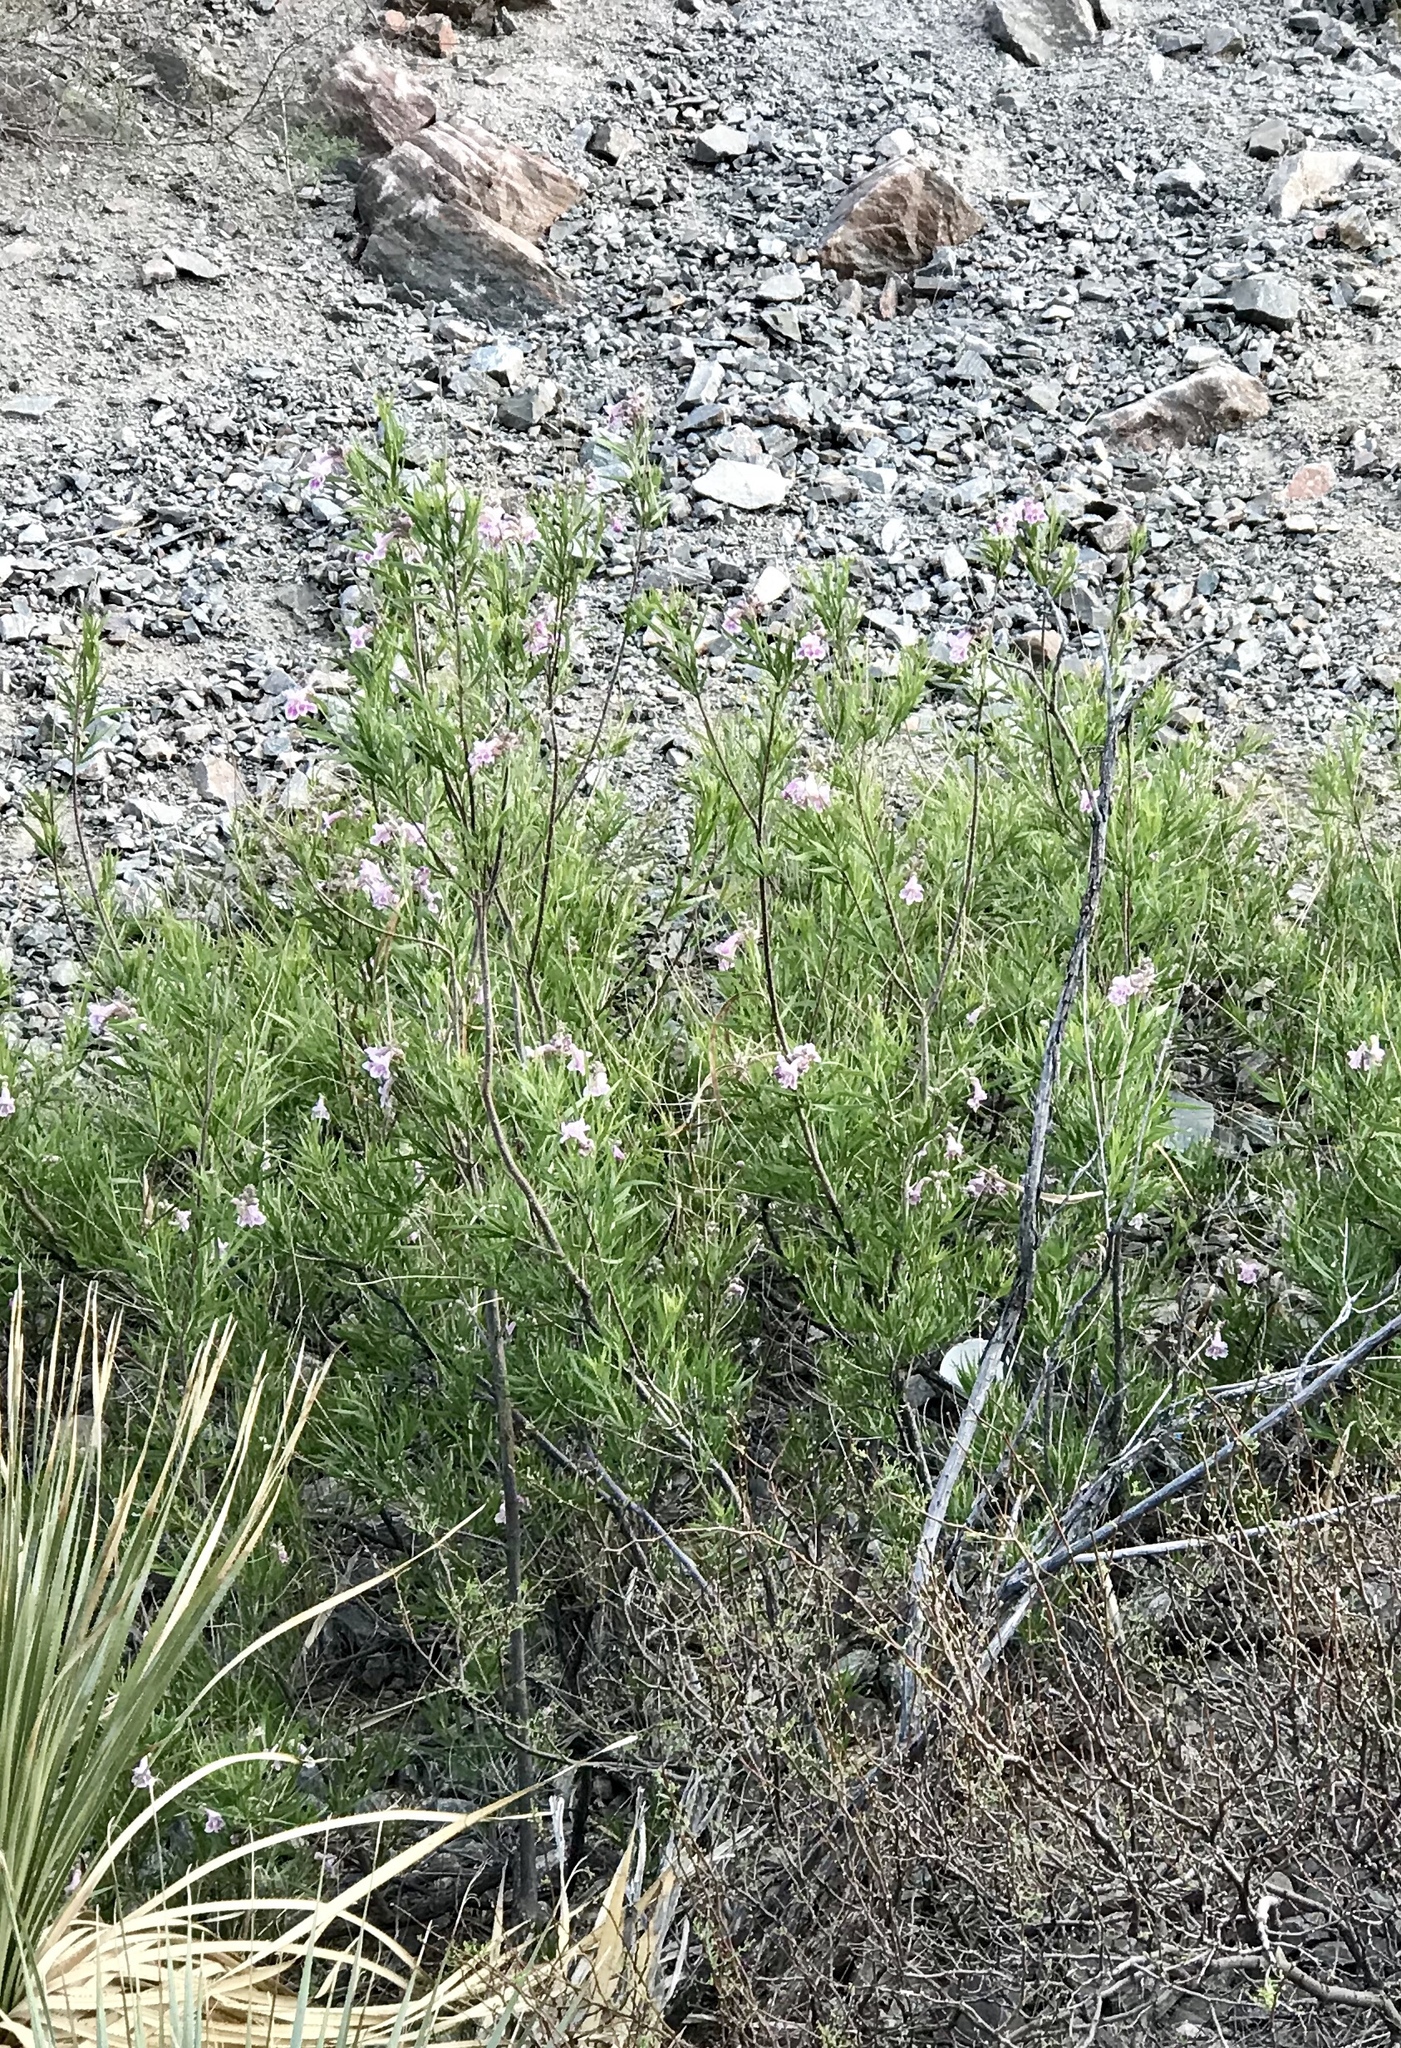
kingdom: Plantae
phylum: Tracheophyta
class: Magnoliopsida
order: Lamiales
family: Bignoniaceae
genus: Chilopsis
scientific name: Chilopsis linearis
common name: Desert-willow
